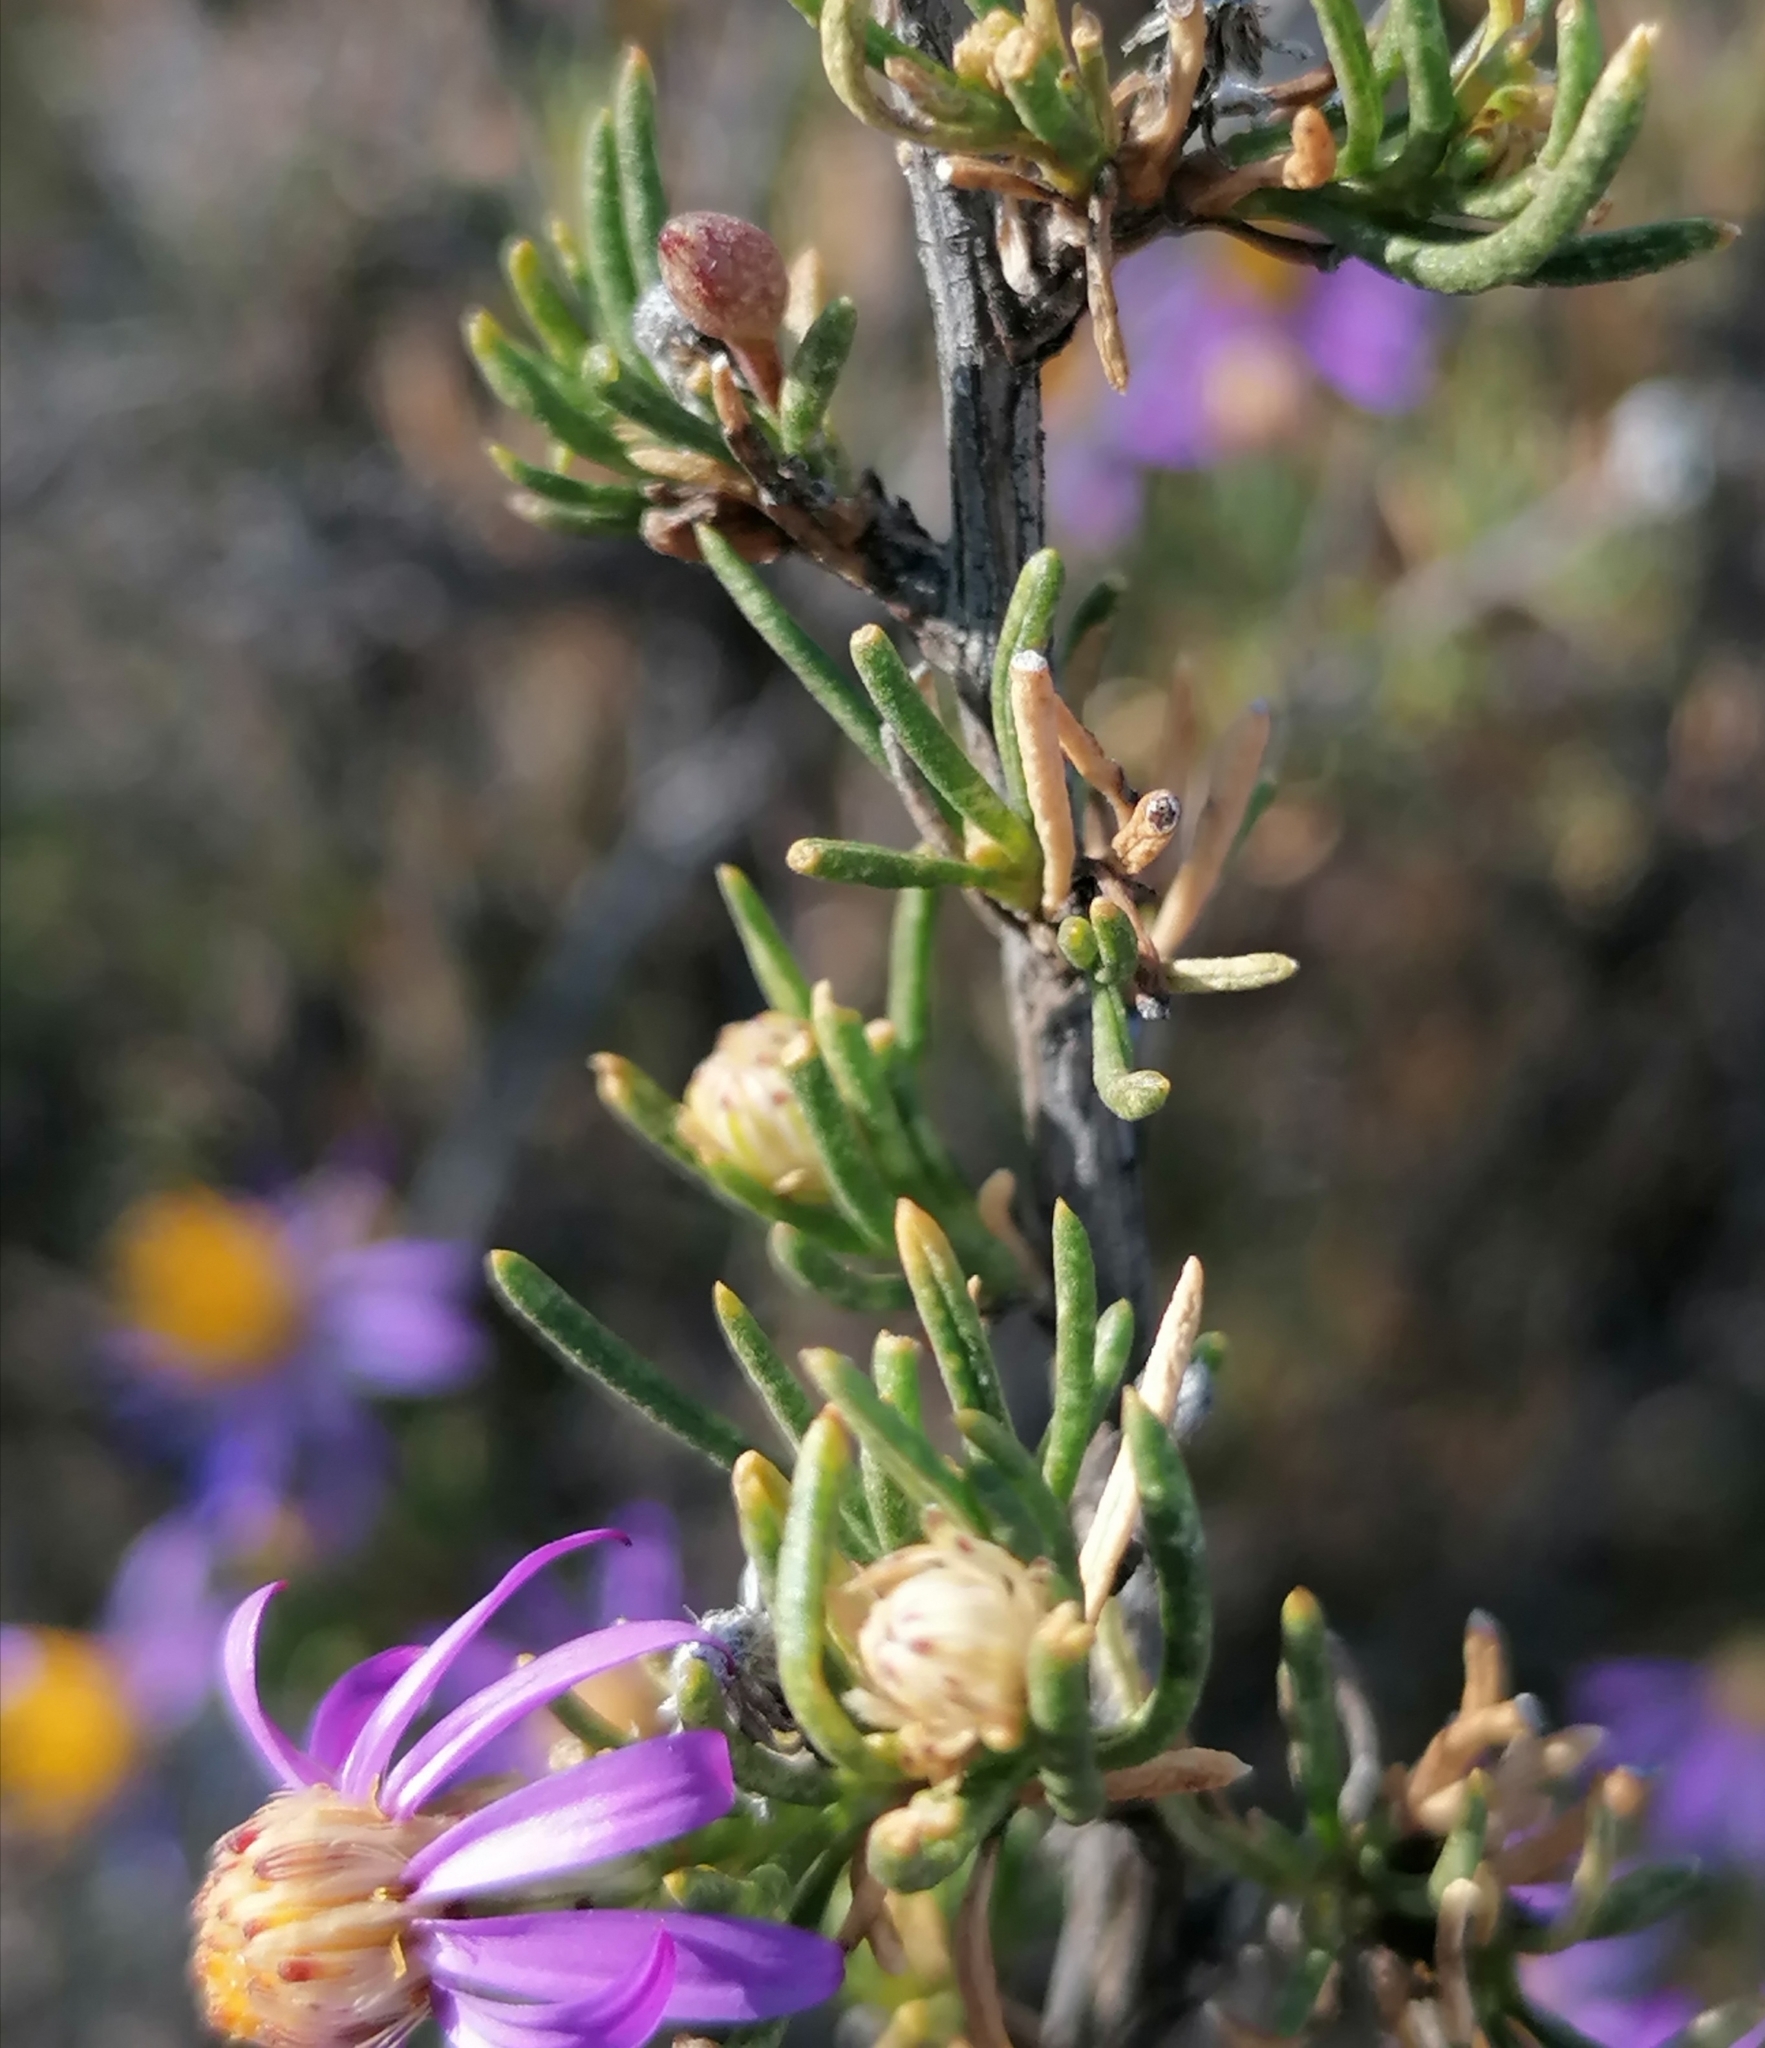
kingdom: Plantae
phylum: Tracheophyta
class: Magnoliopsida
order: Asterales
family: Asteraceae
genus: Felicia
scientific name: Felicia filifolia
